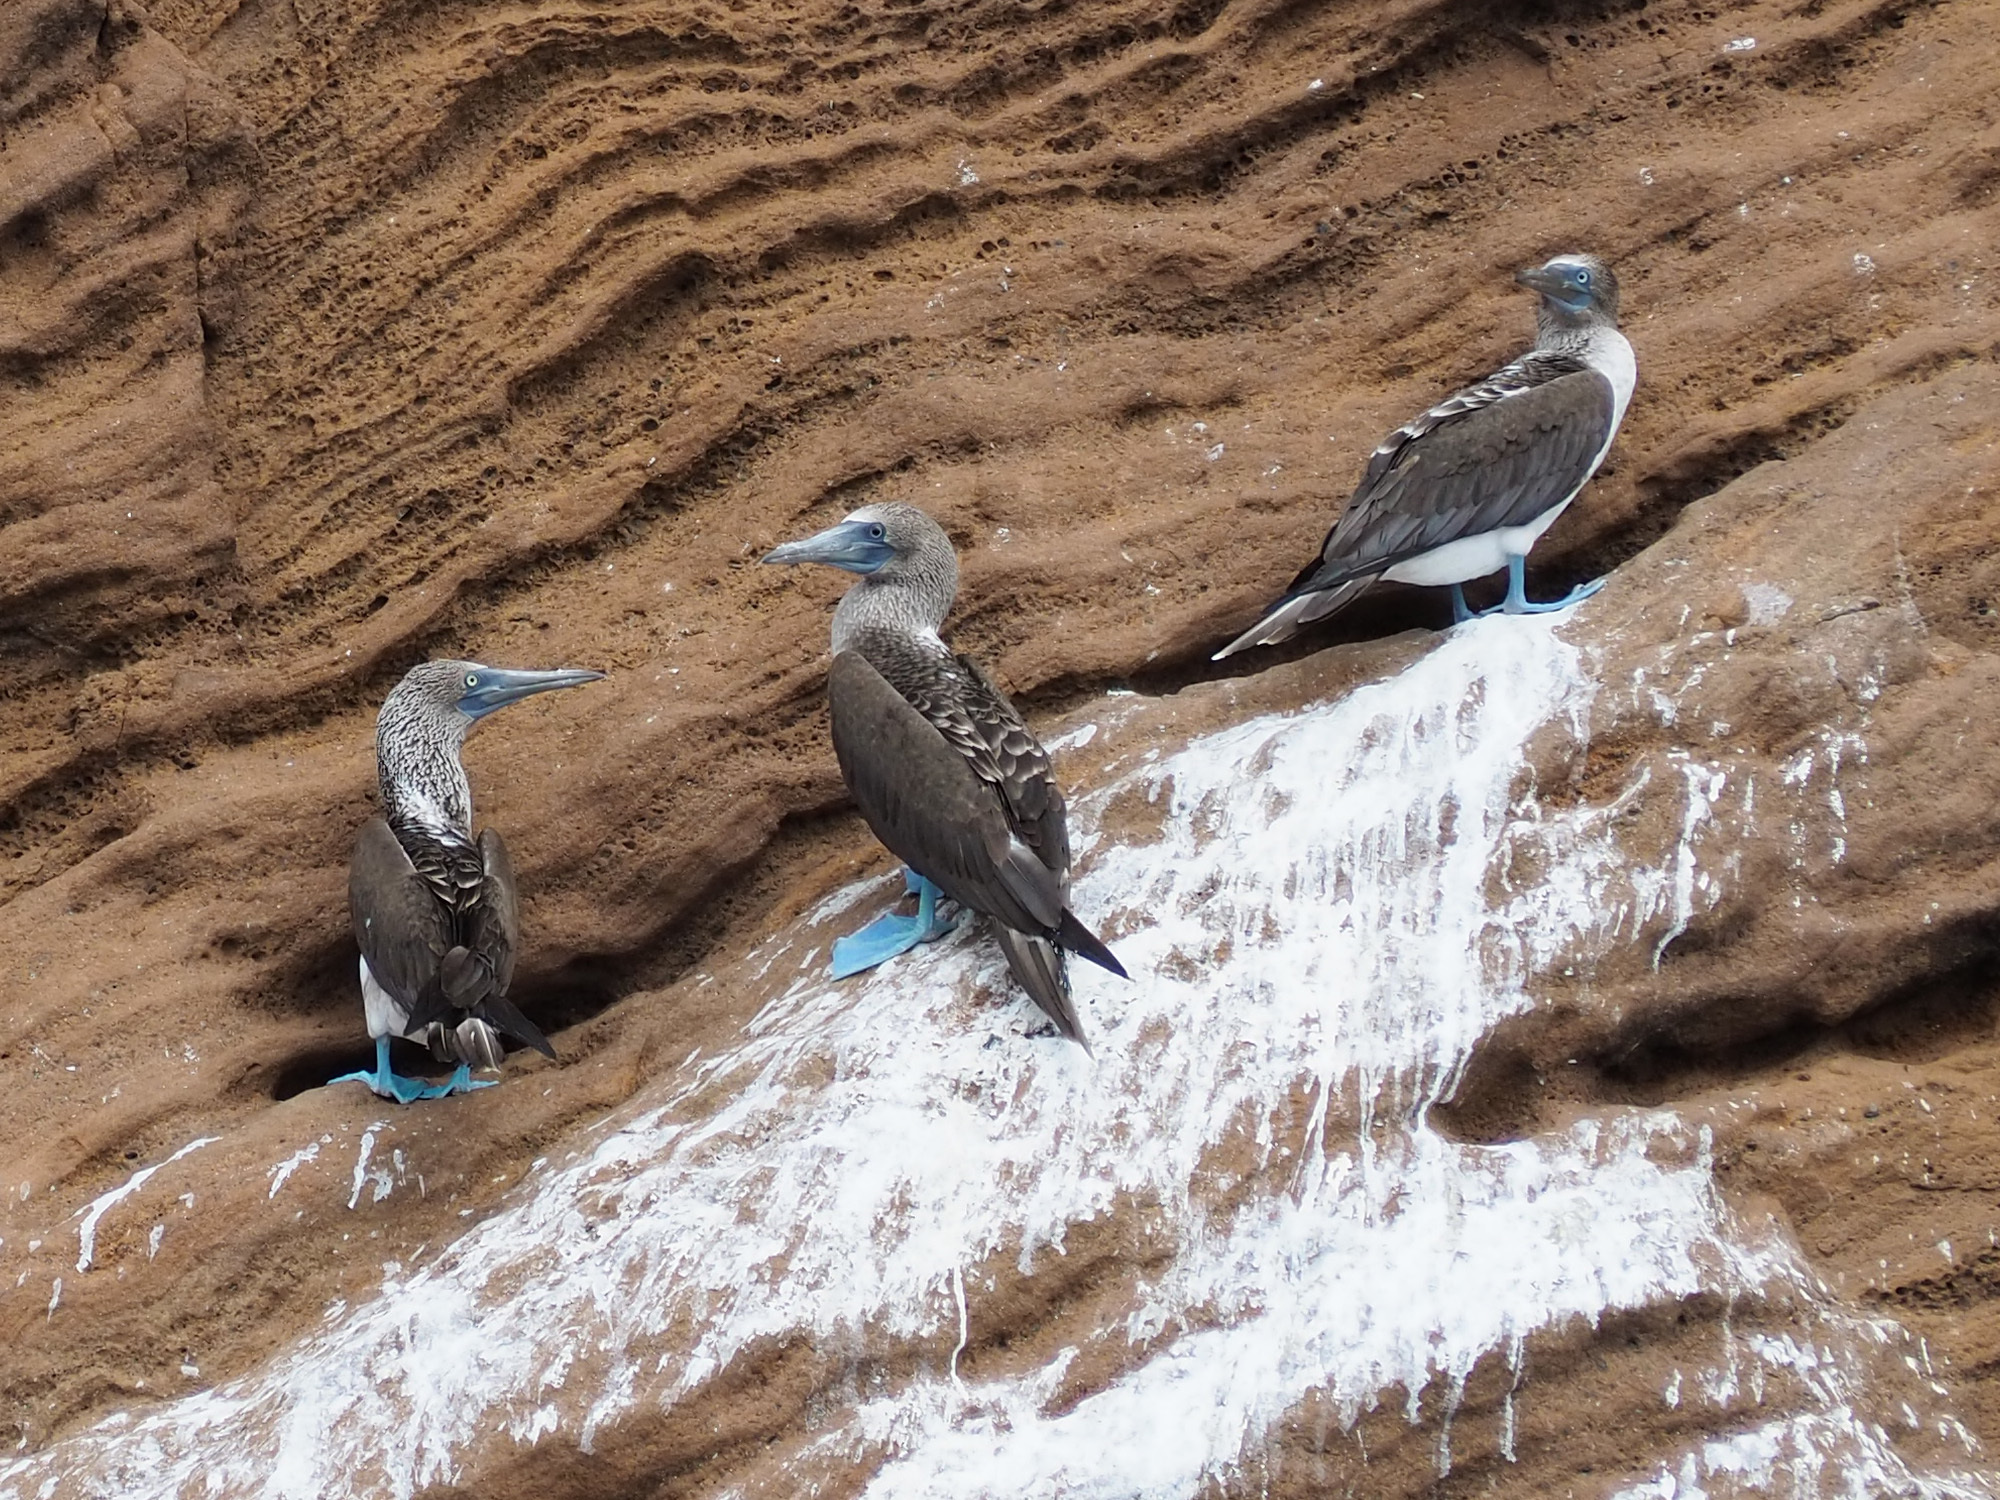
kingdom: Animalia
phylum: Chordata
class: Aves
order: Suliformes
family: Sulidae
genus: Sula
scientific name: Sula nebouxii
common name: Blue-footed booby
